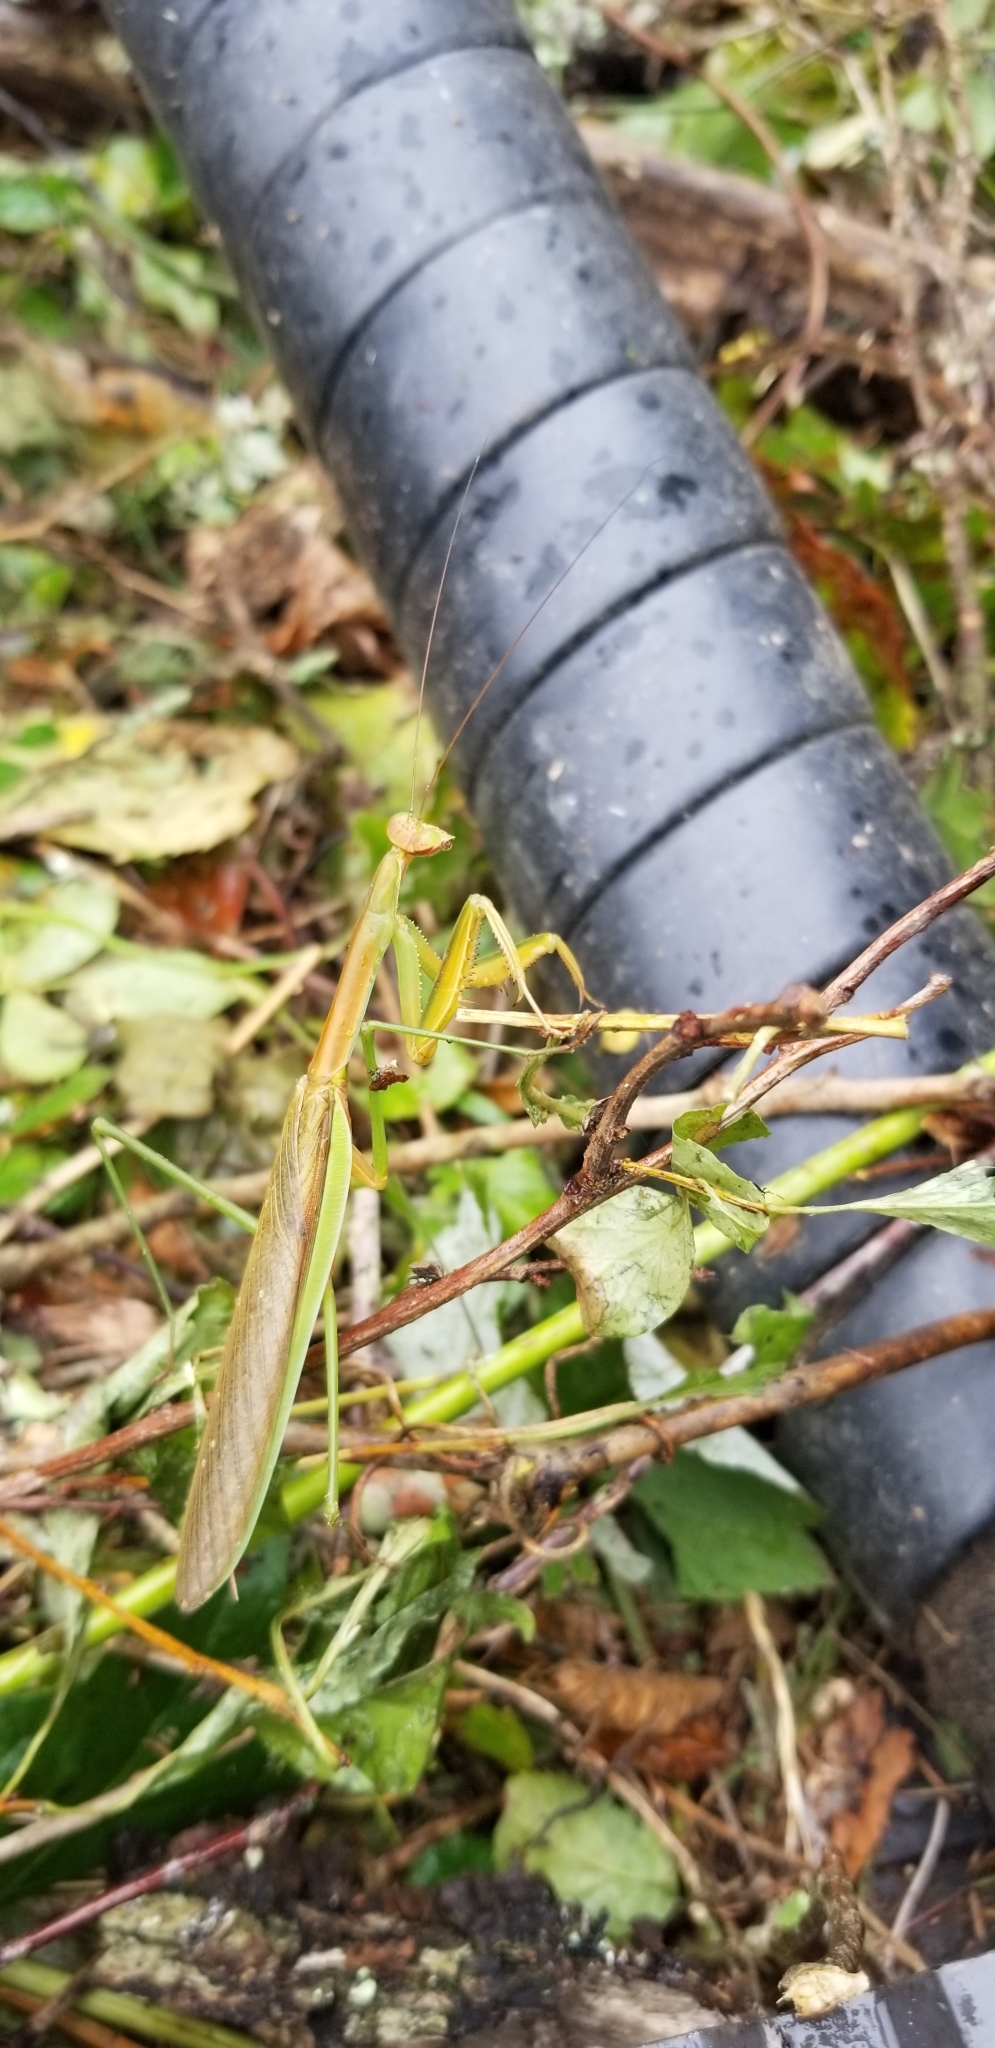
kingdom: Animalia
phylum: Arthropoda
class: Insecta
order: Mantodea
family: Mantidae
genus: Tenodera
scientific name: Tenodera sinensis
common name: Chinese mantis
